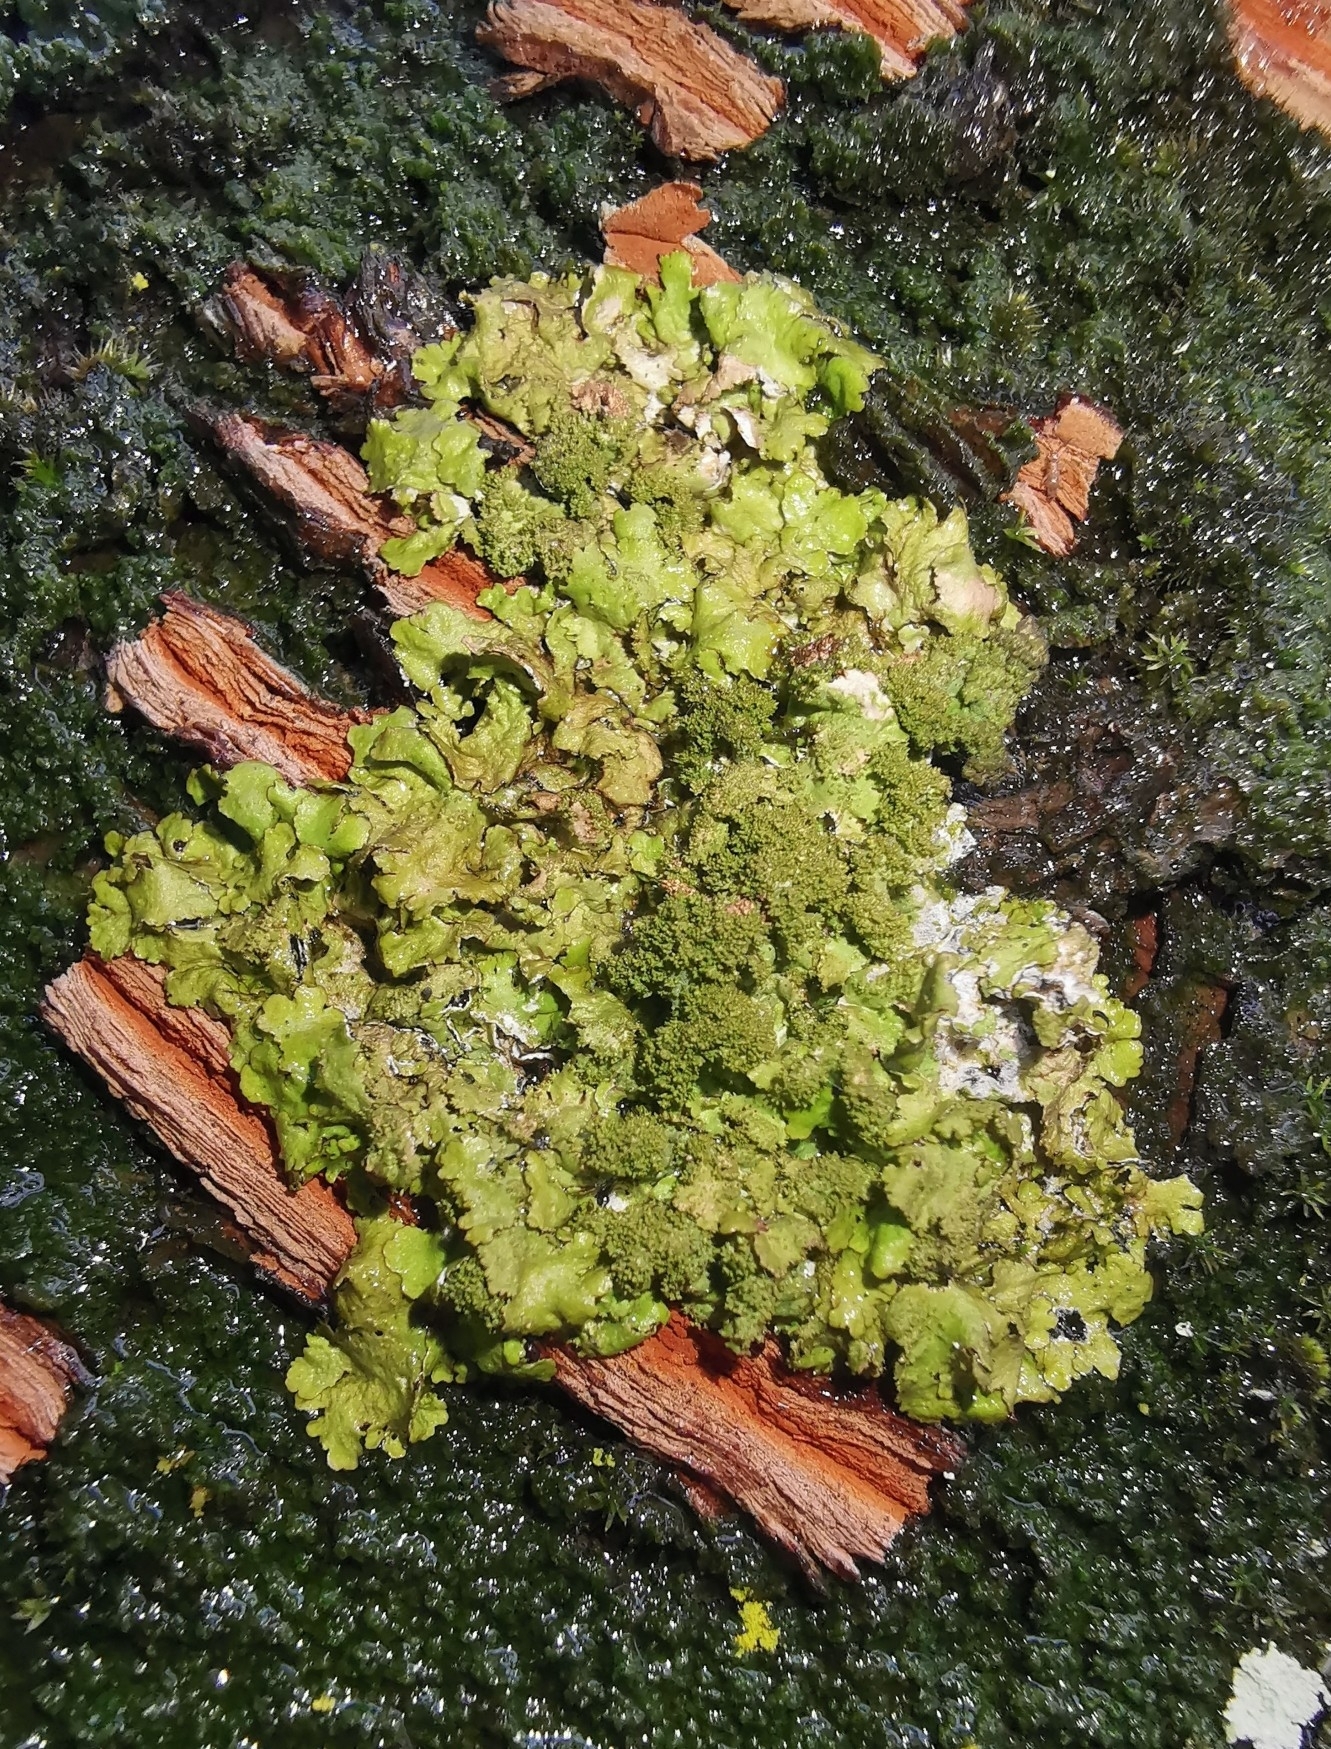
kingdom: Fungi
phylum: Ascomycota
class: Lecanoromycetes
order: Lecanorales
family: Parmeliaceae
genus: Melanohalea
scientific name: Melanohalea exasperatula
